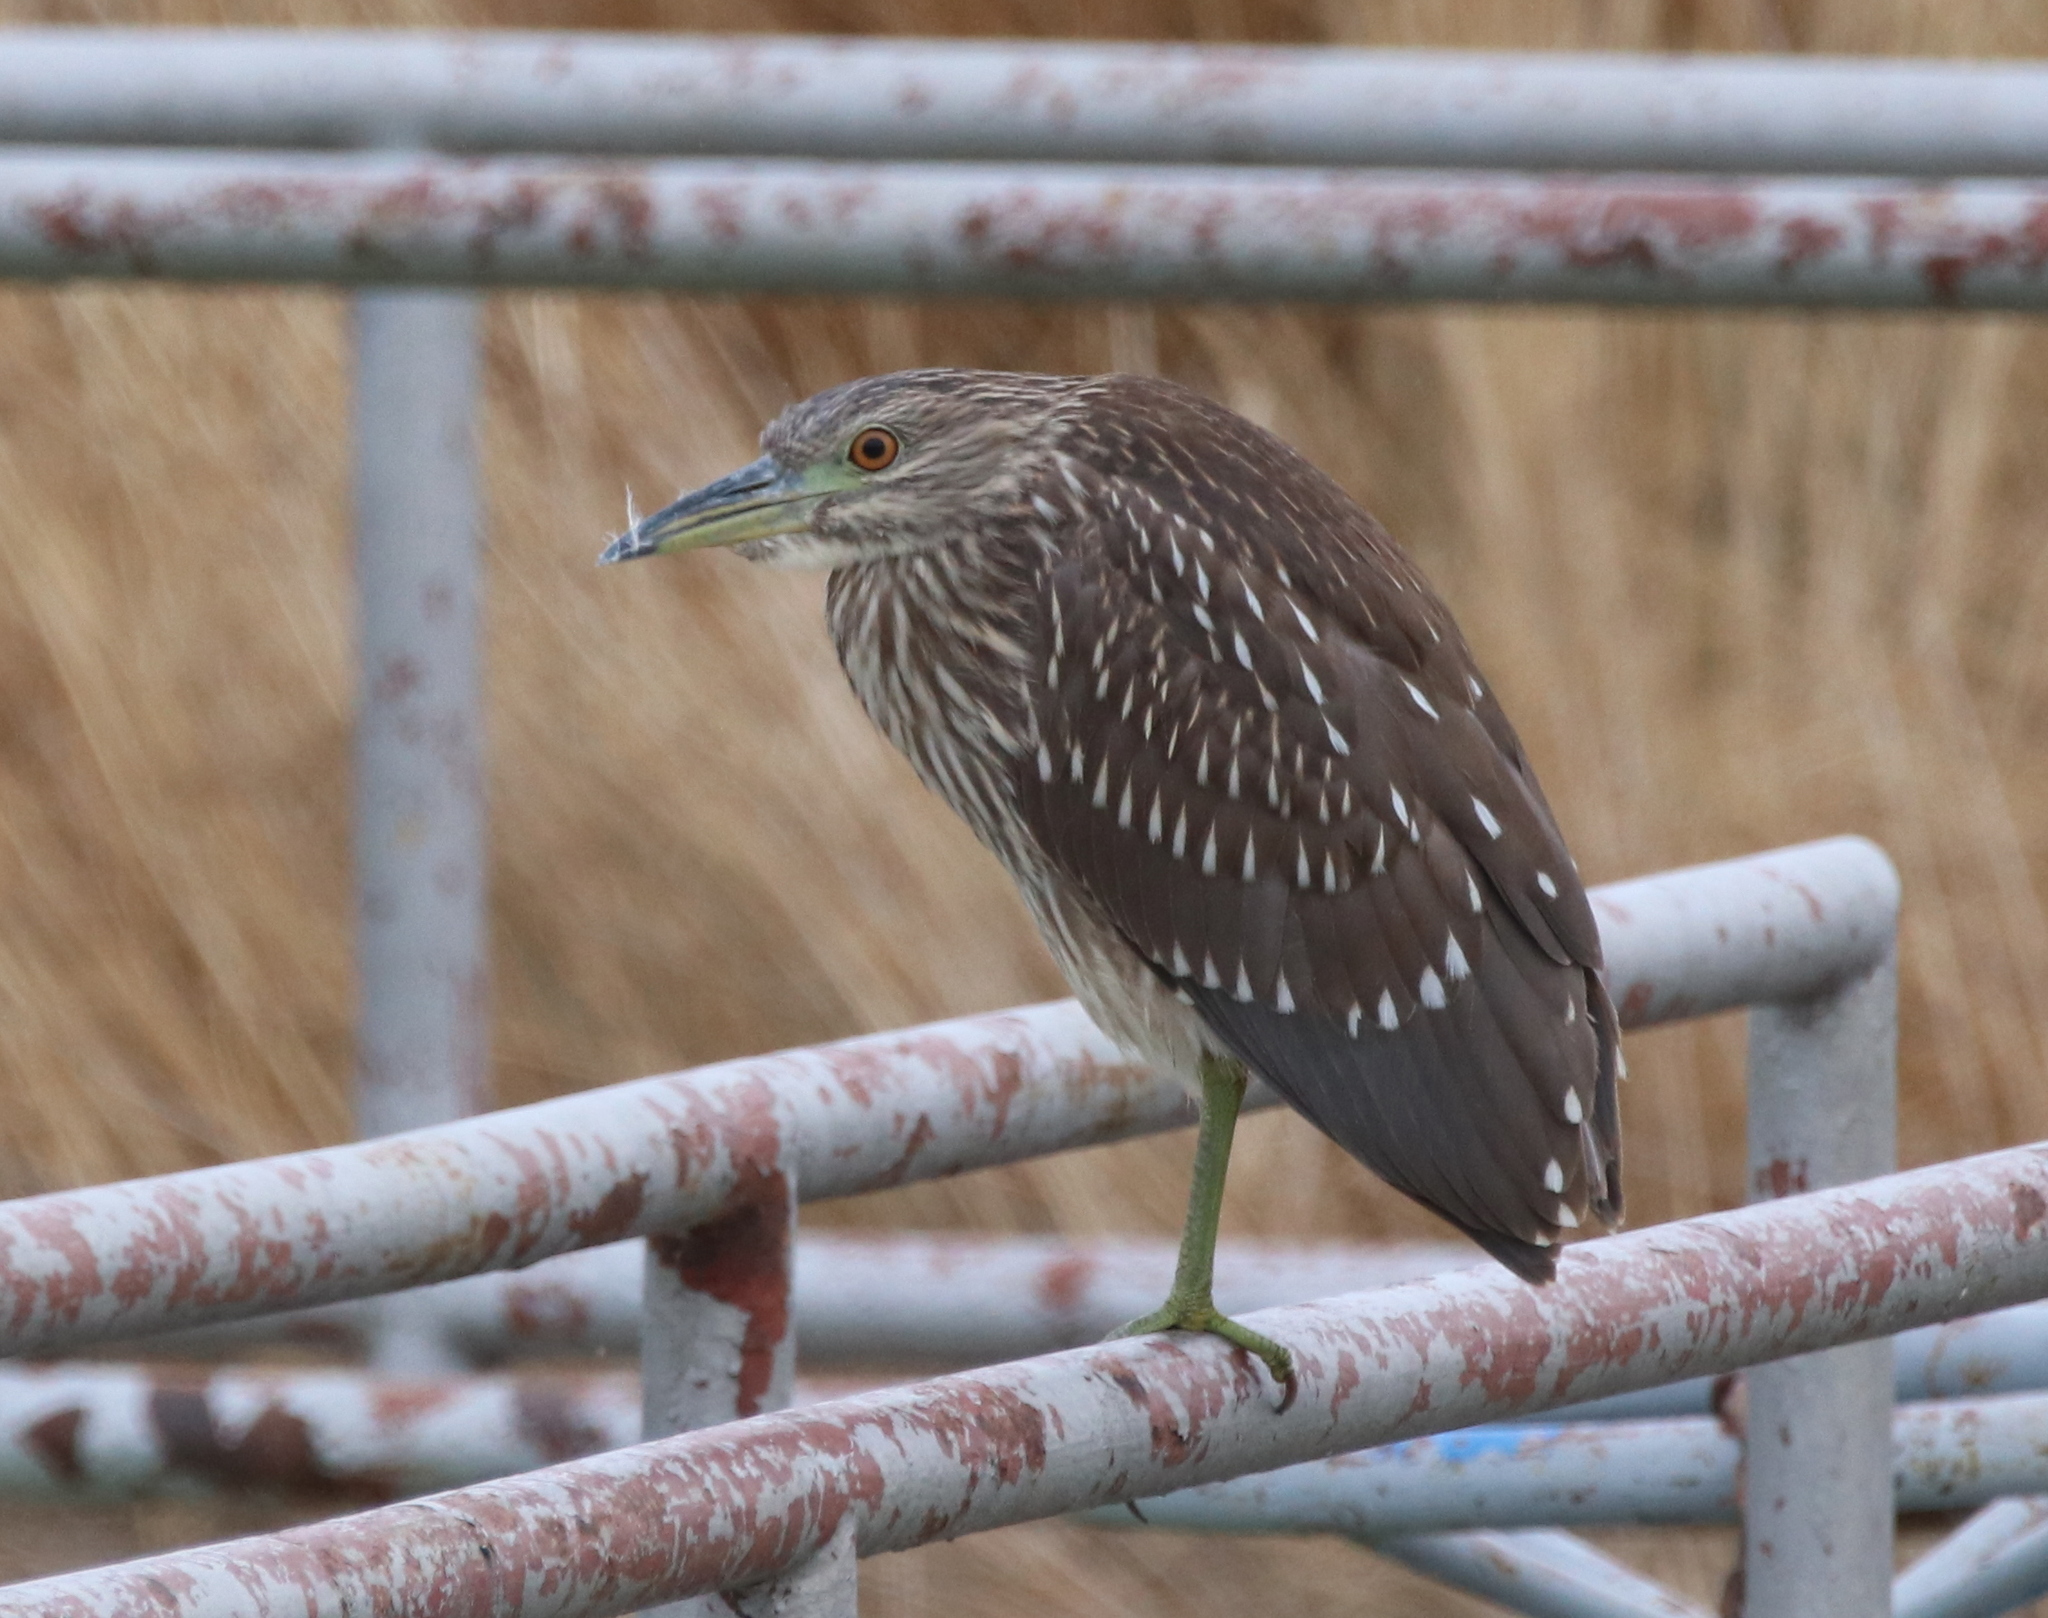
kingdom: Animalia
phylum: Chordata
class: Aves
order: Pelecaniformes
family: Ardeidae
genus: Nycticorax
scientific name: Nycticorax nycticorax
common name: Black-crowned night heron
